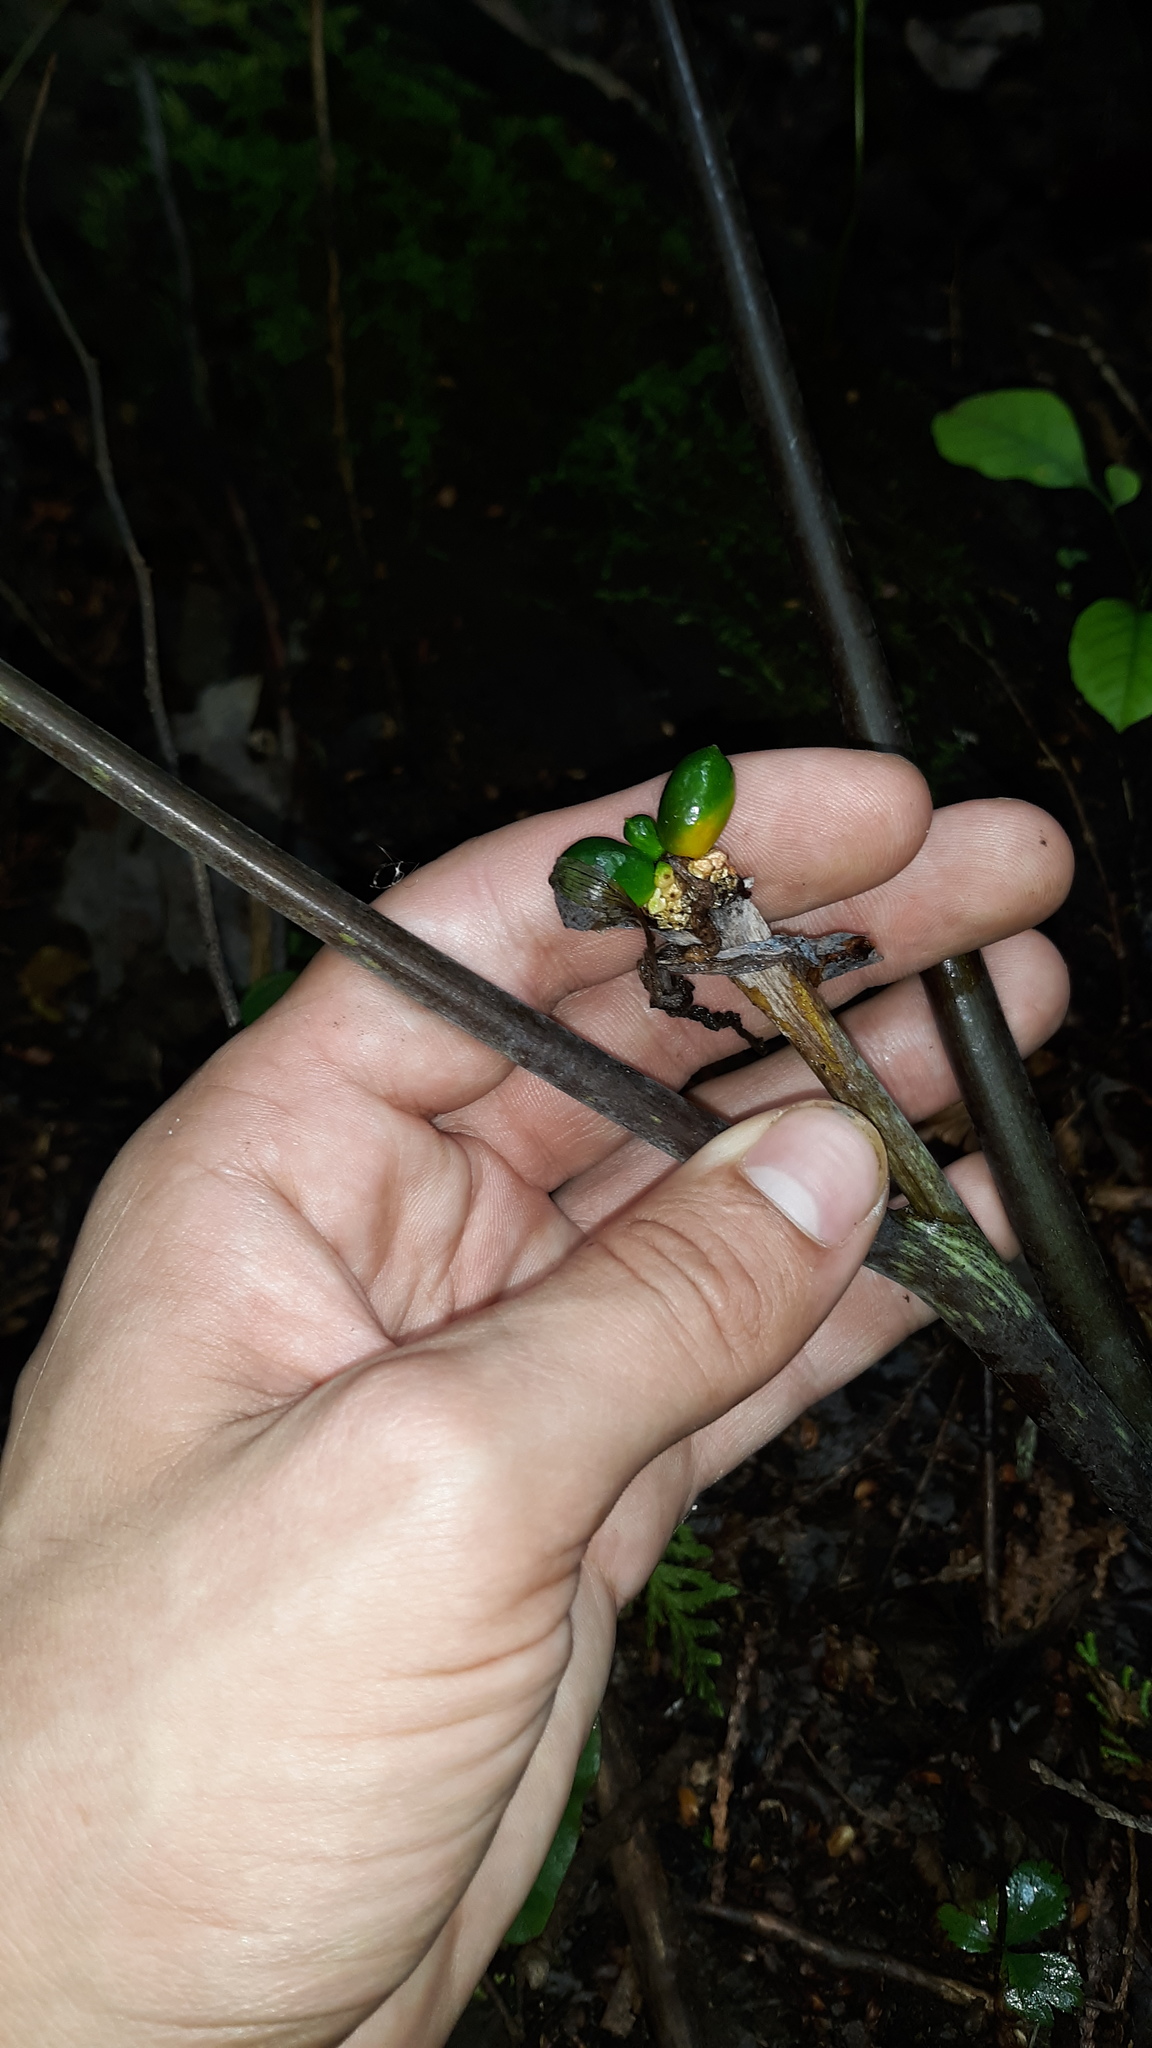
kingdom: Plantae
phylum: Tracheophyta
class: Liliopsida
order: Alismatales
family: Araceae
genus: Arisaema
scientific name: Arisaema triphyllum
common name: Jack-in-the-pulpit
